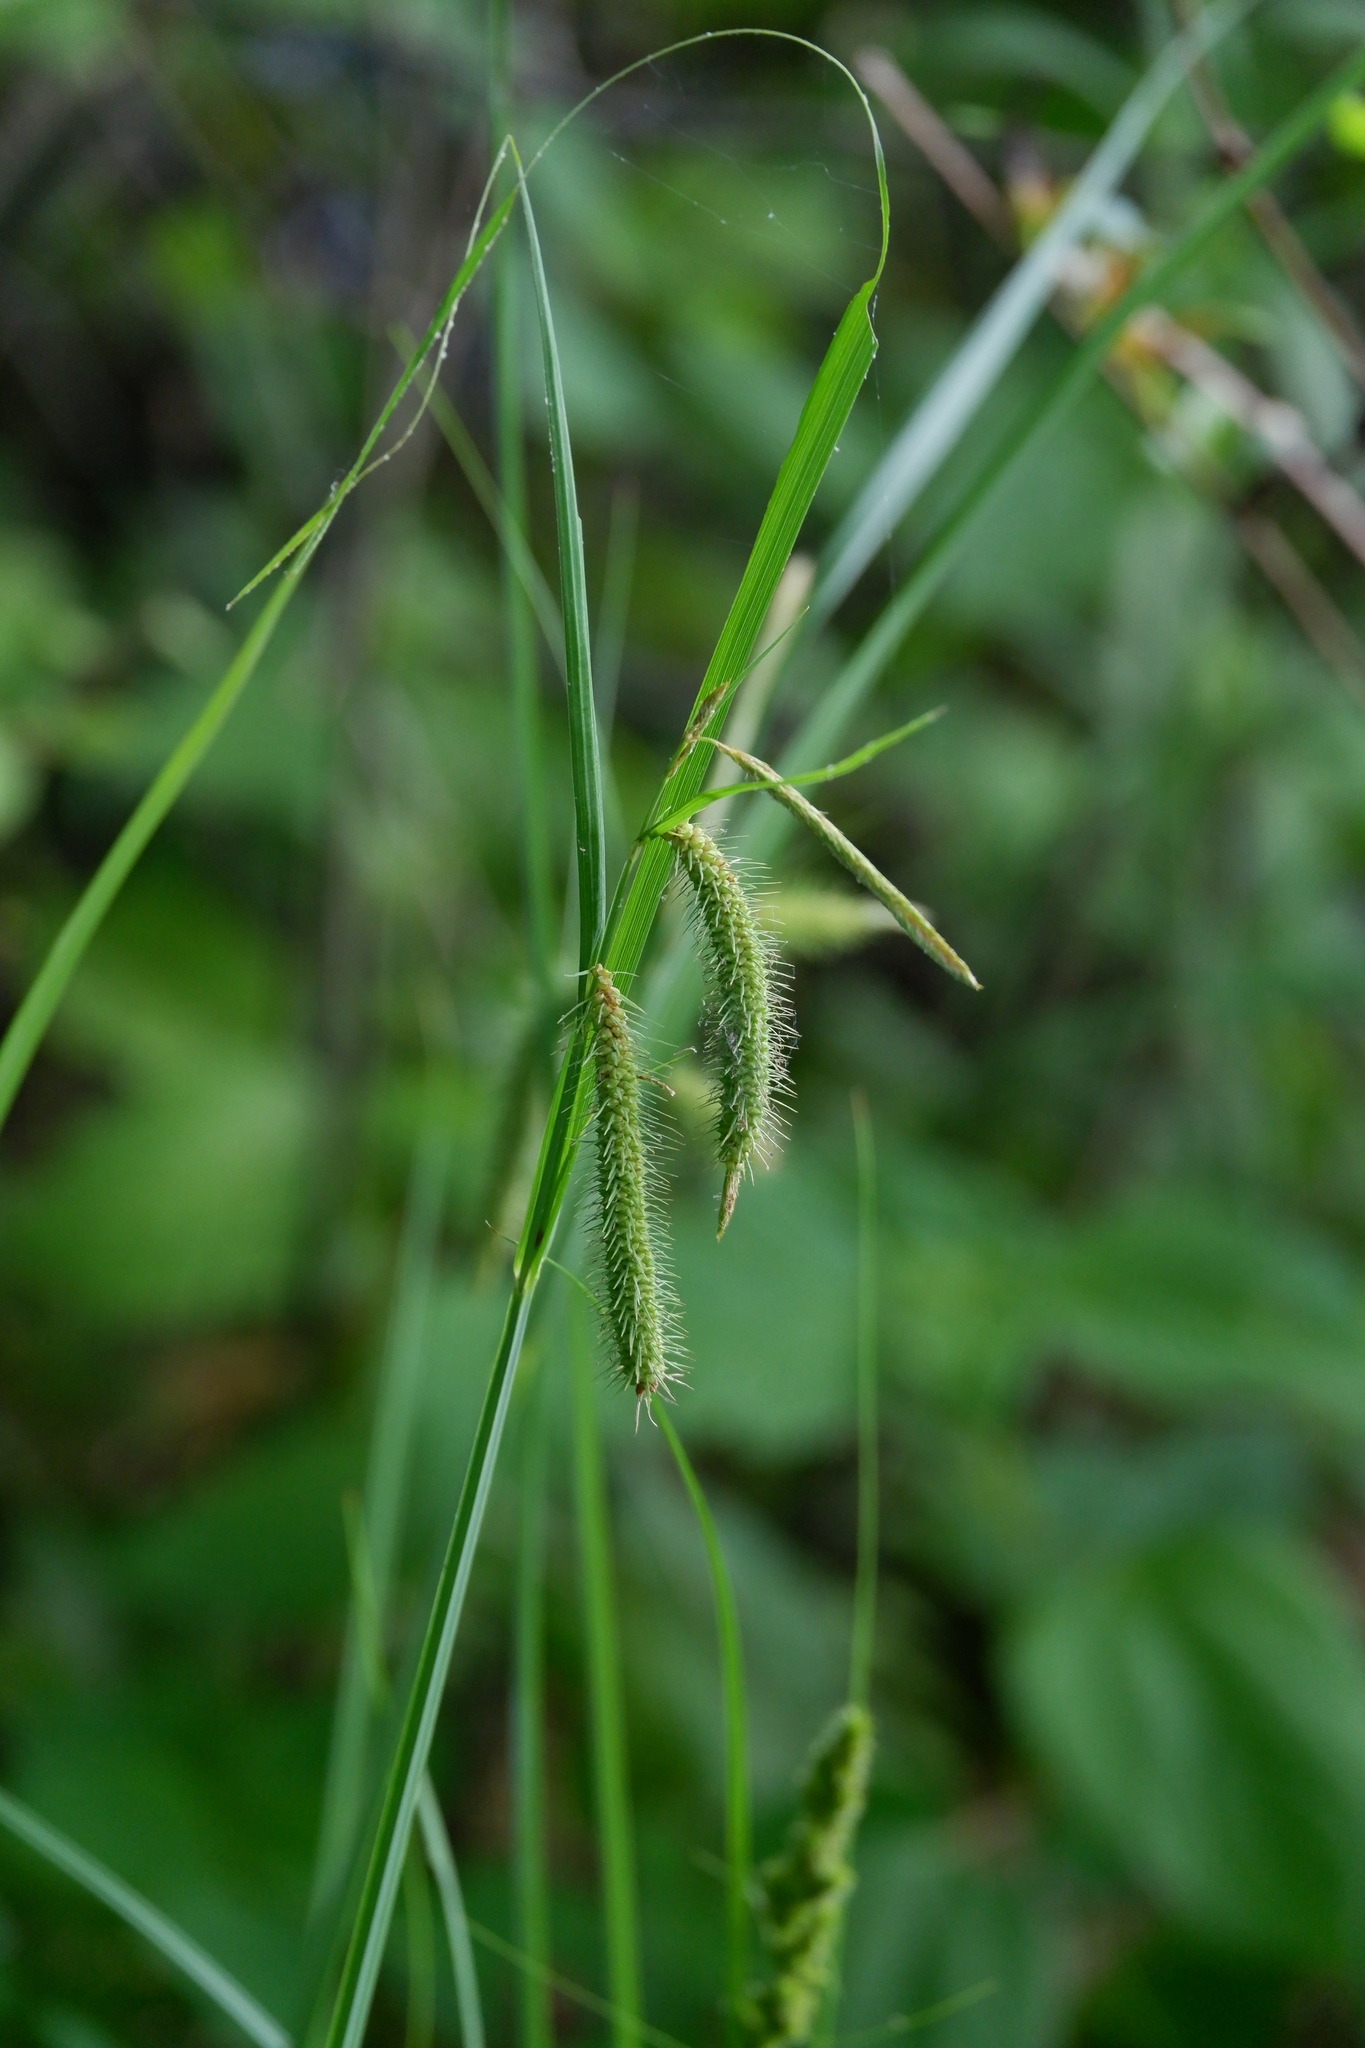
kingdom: Plantae
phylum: Tracheophyta
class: Liliopsida
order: Poales
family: Cyperaceae
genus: Carex
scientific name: Carex crinita
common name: Fringed sedge
